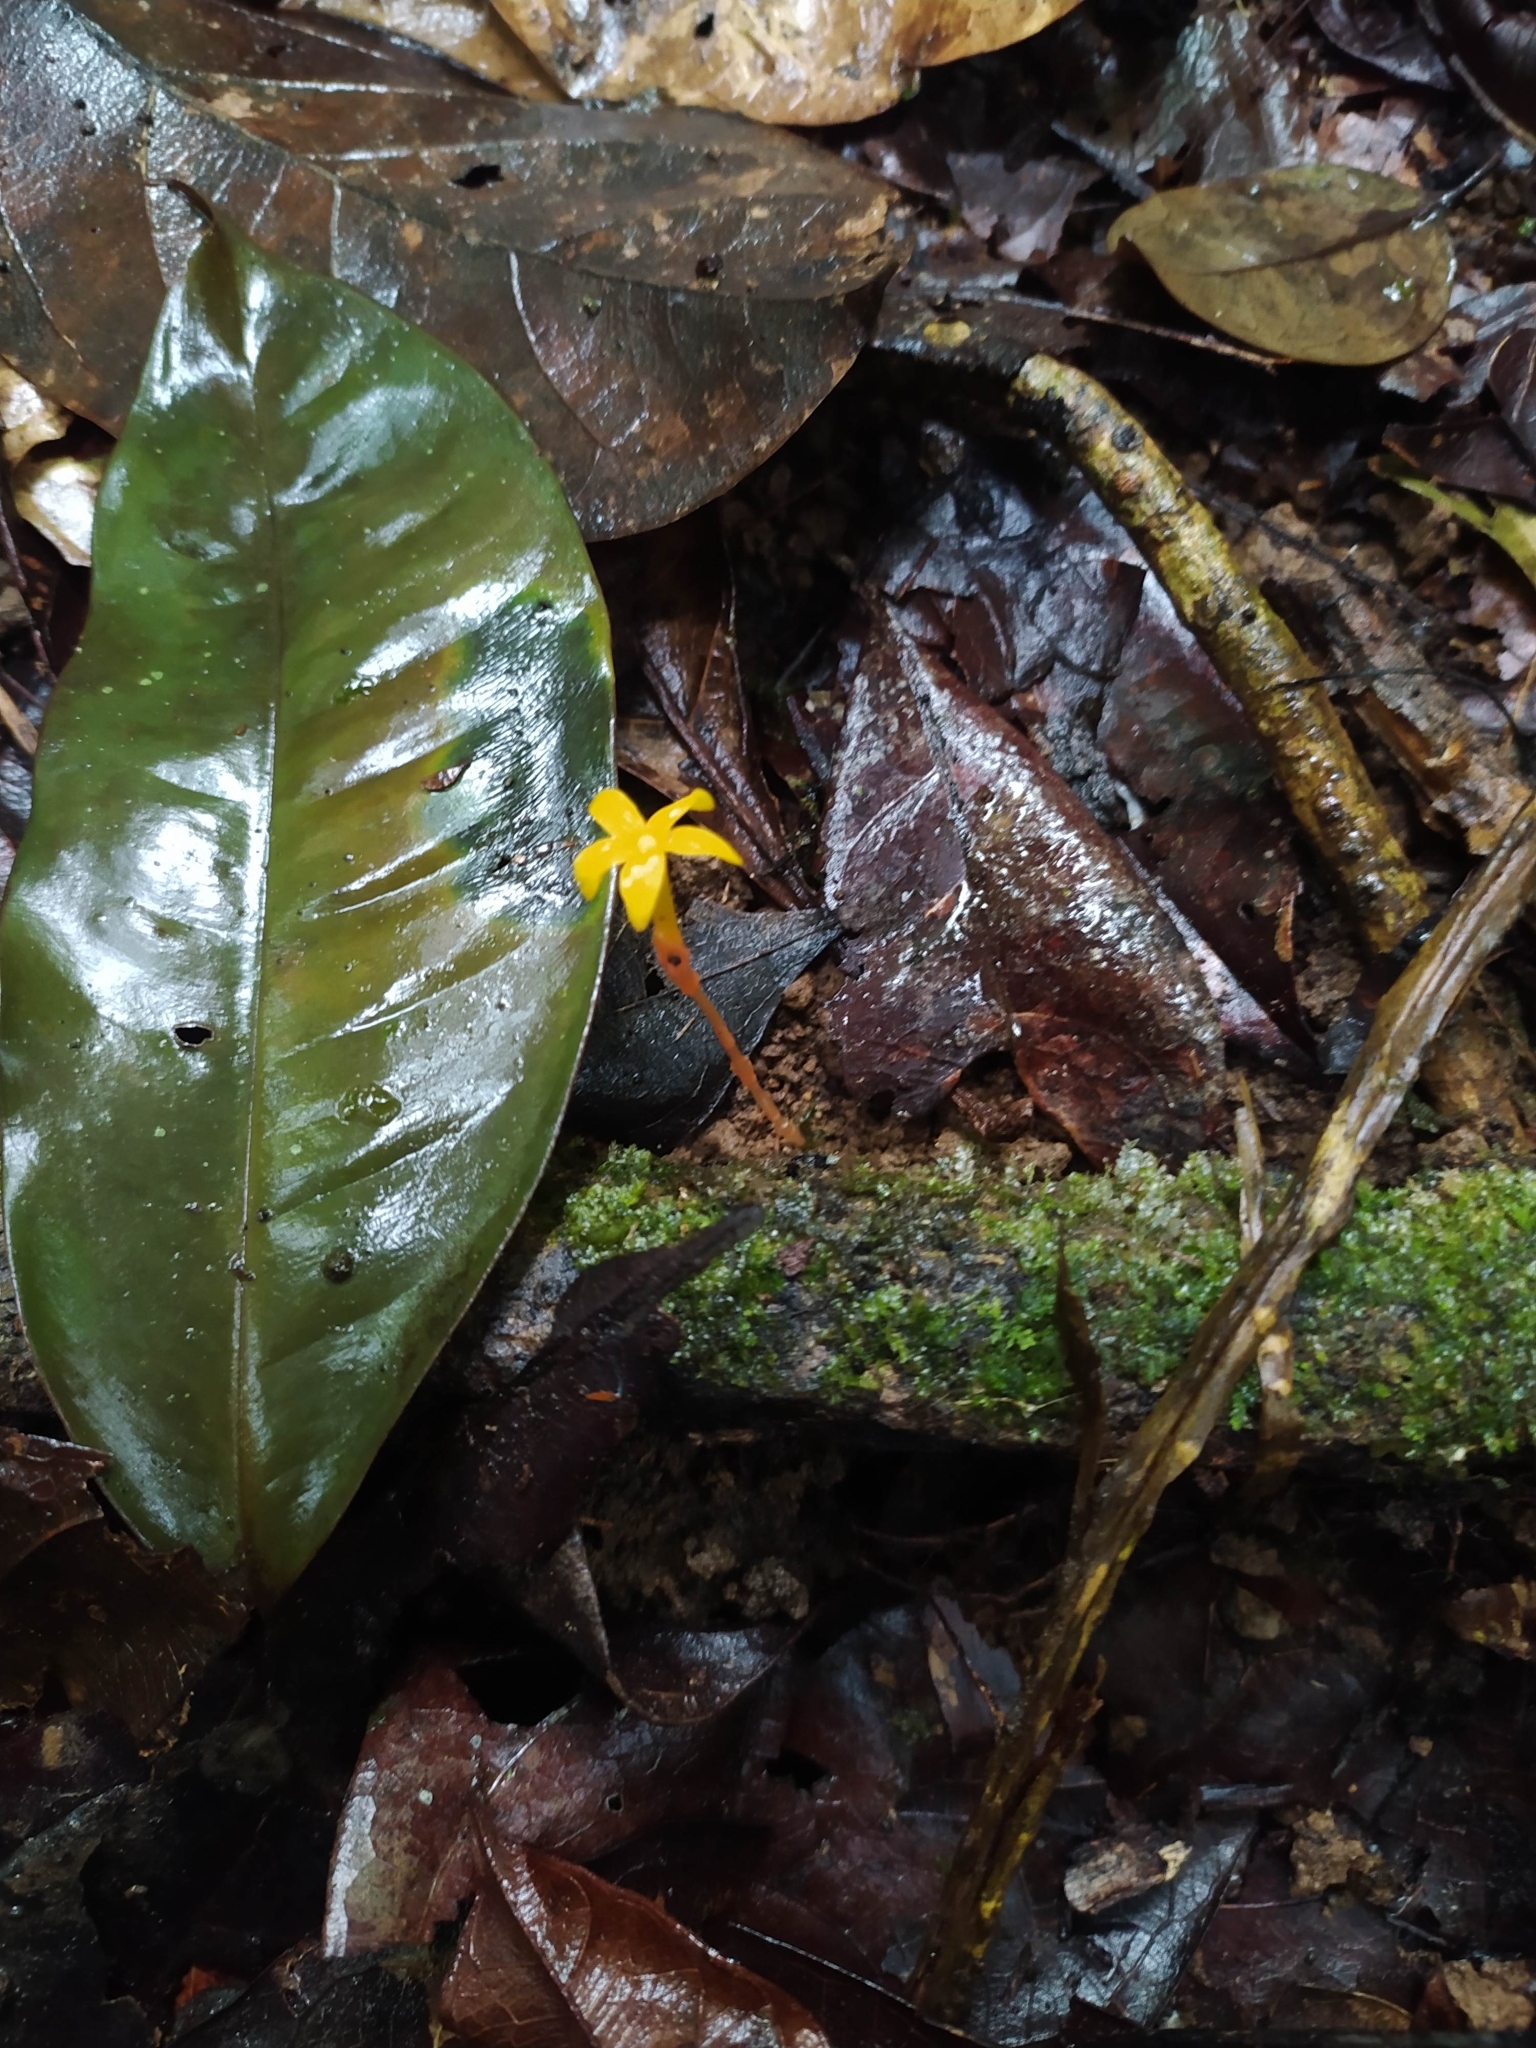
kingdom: Plantae
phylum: Tracheophyta
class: Magnoliopsida
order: Gentianales
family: Gentianaceae
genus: Voyria
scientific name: Voyria aurantiaca
